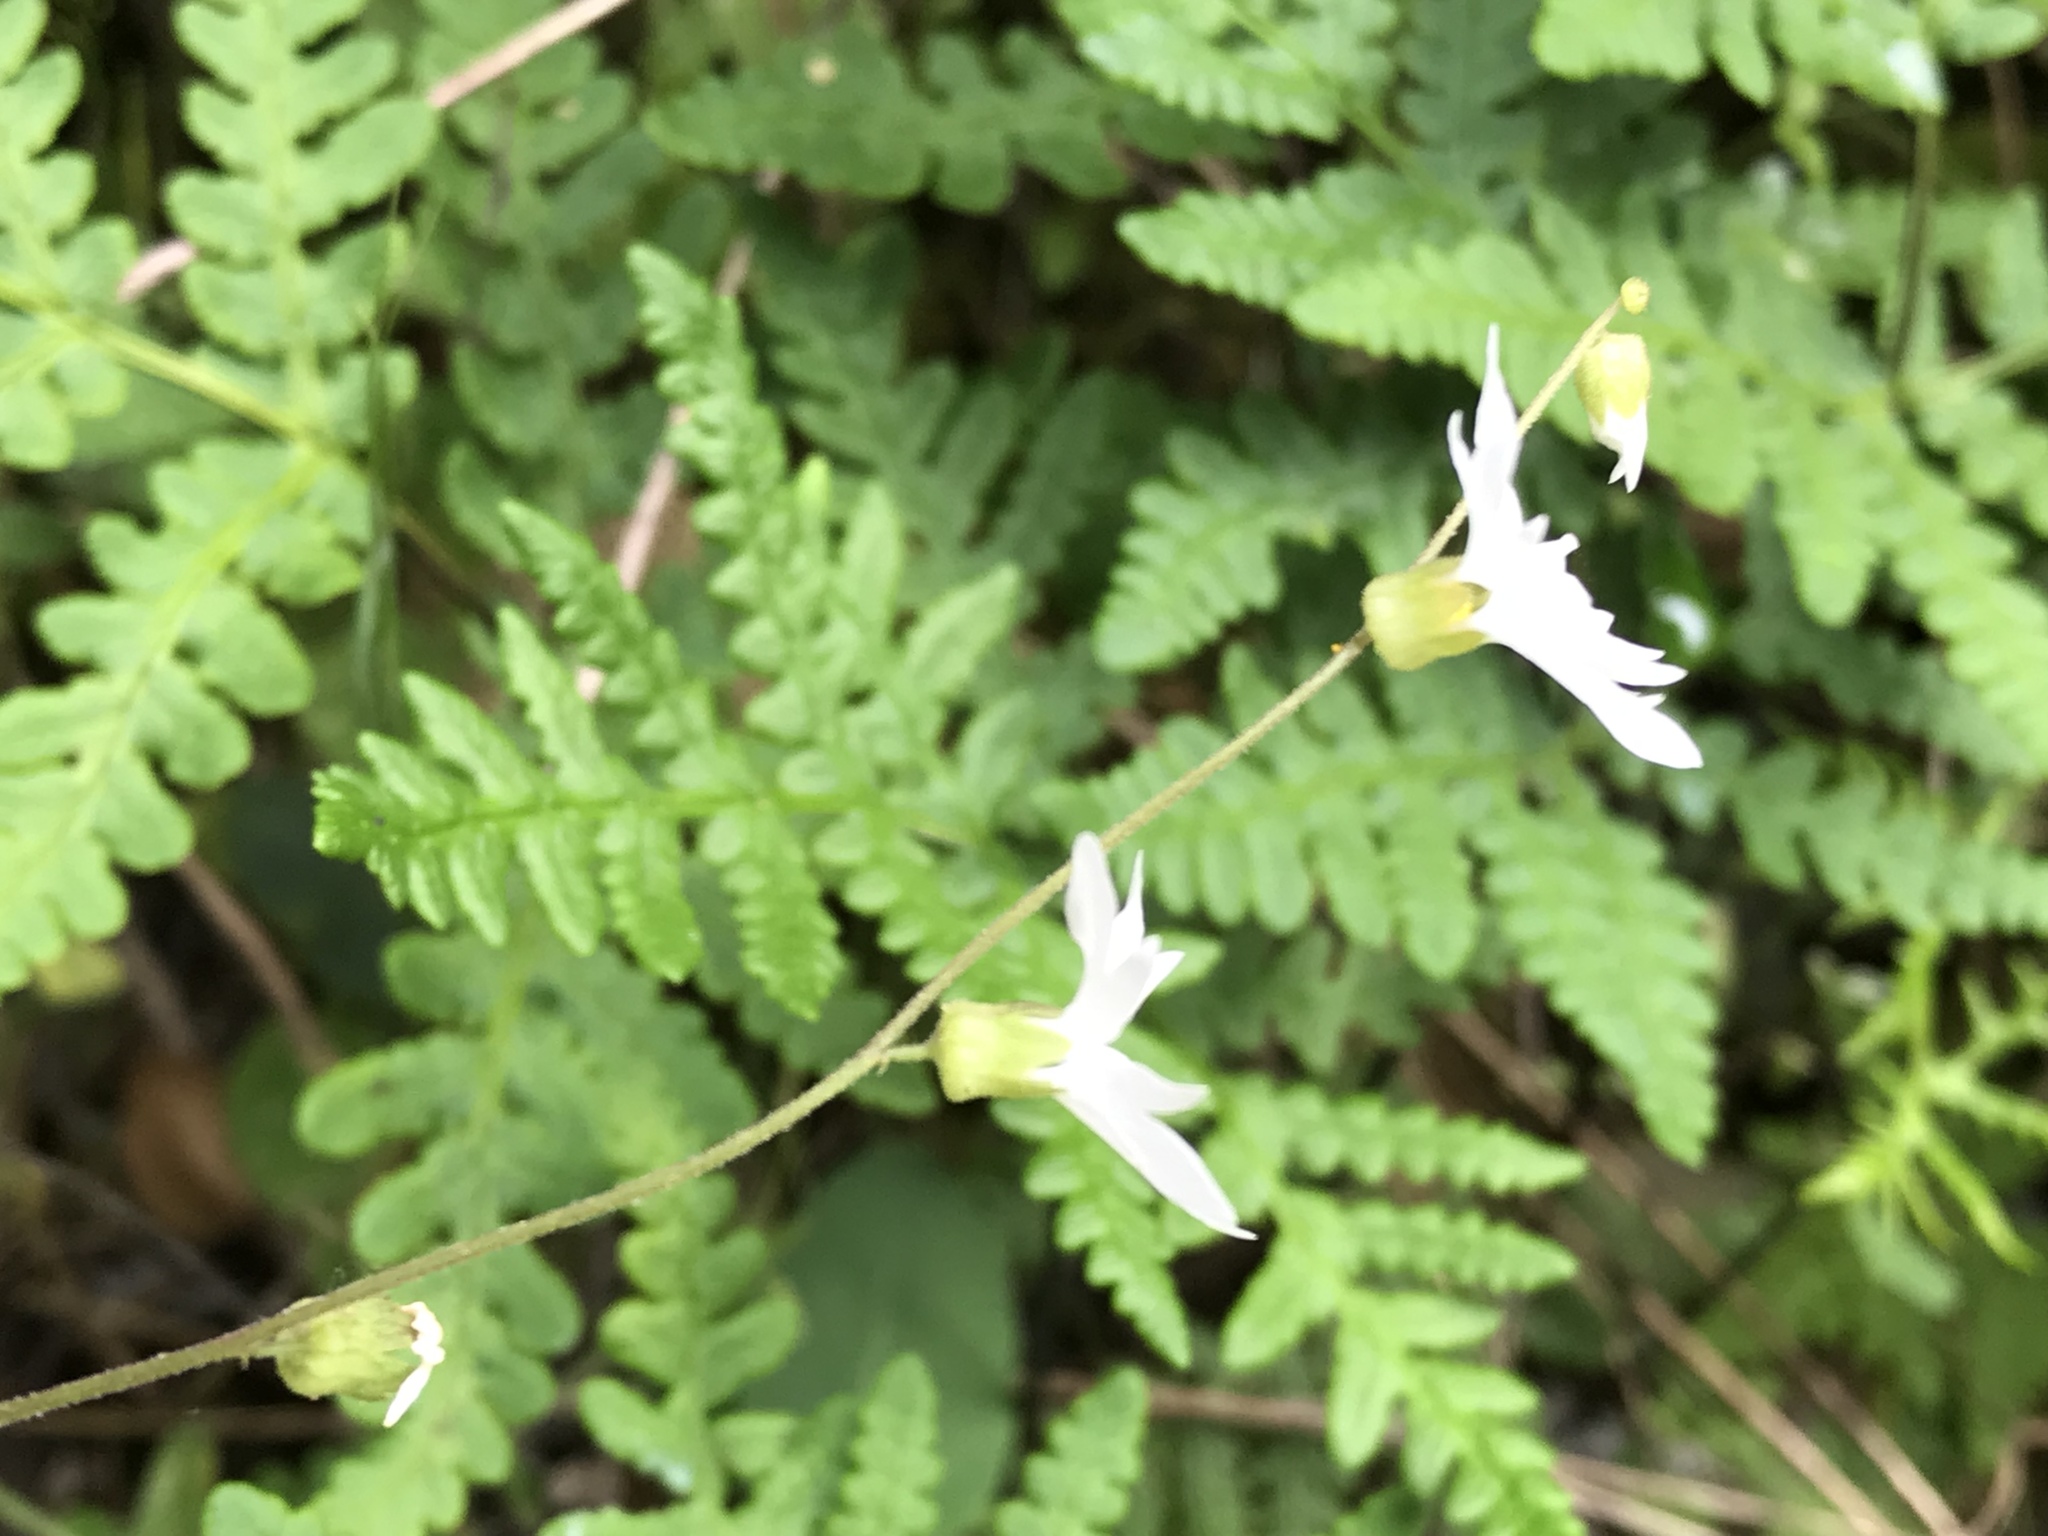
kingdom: Plantae
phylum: Tracheophyta
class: Magnoliopsida
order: Saxifragales
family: Saxifragaceae
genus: Lithophragma
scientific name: Lithophragma heterophyllum
